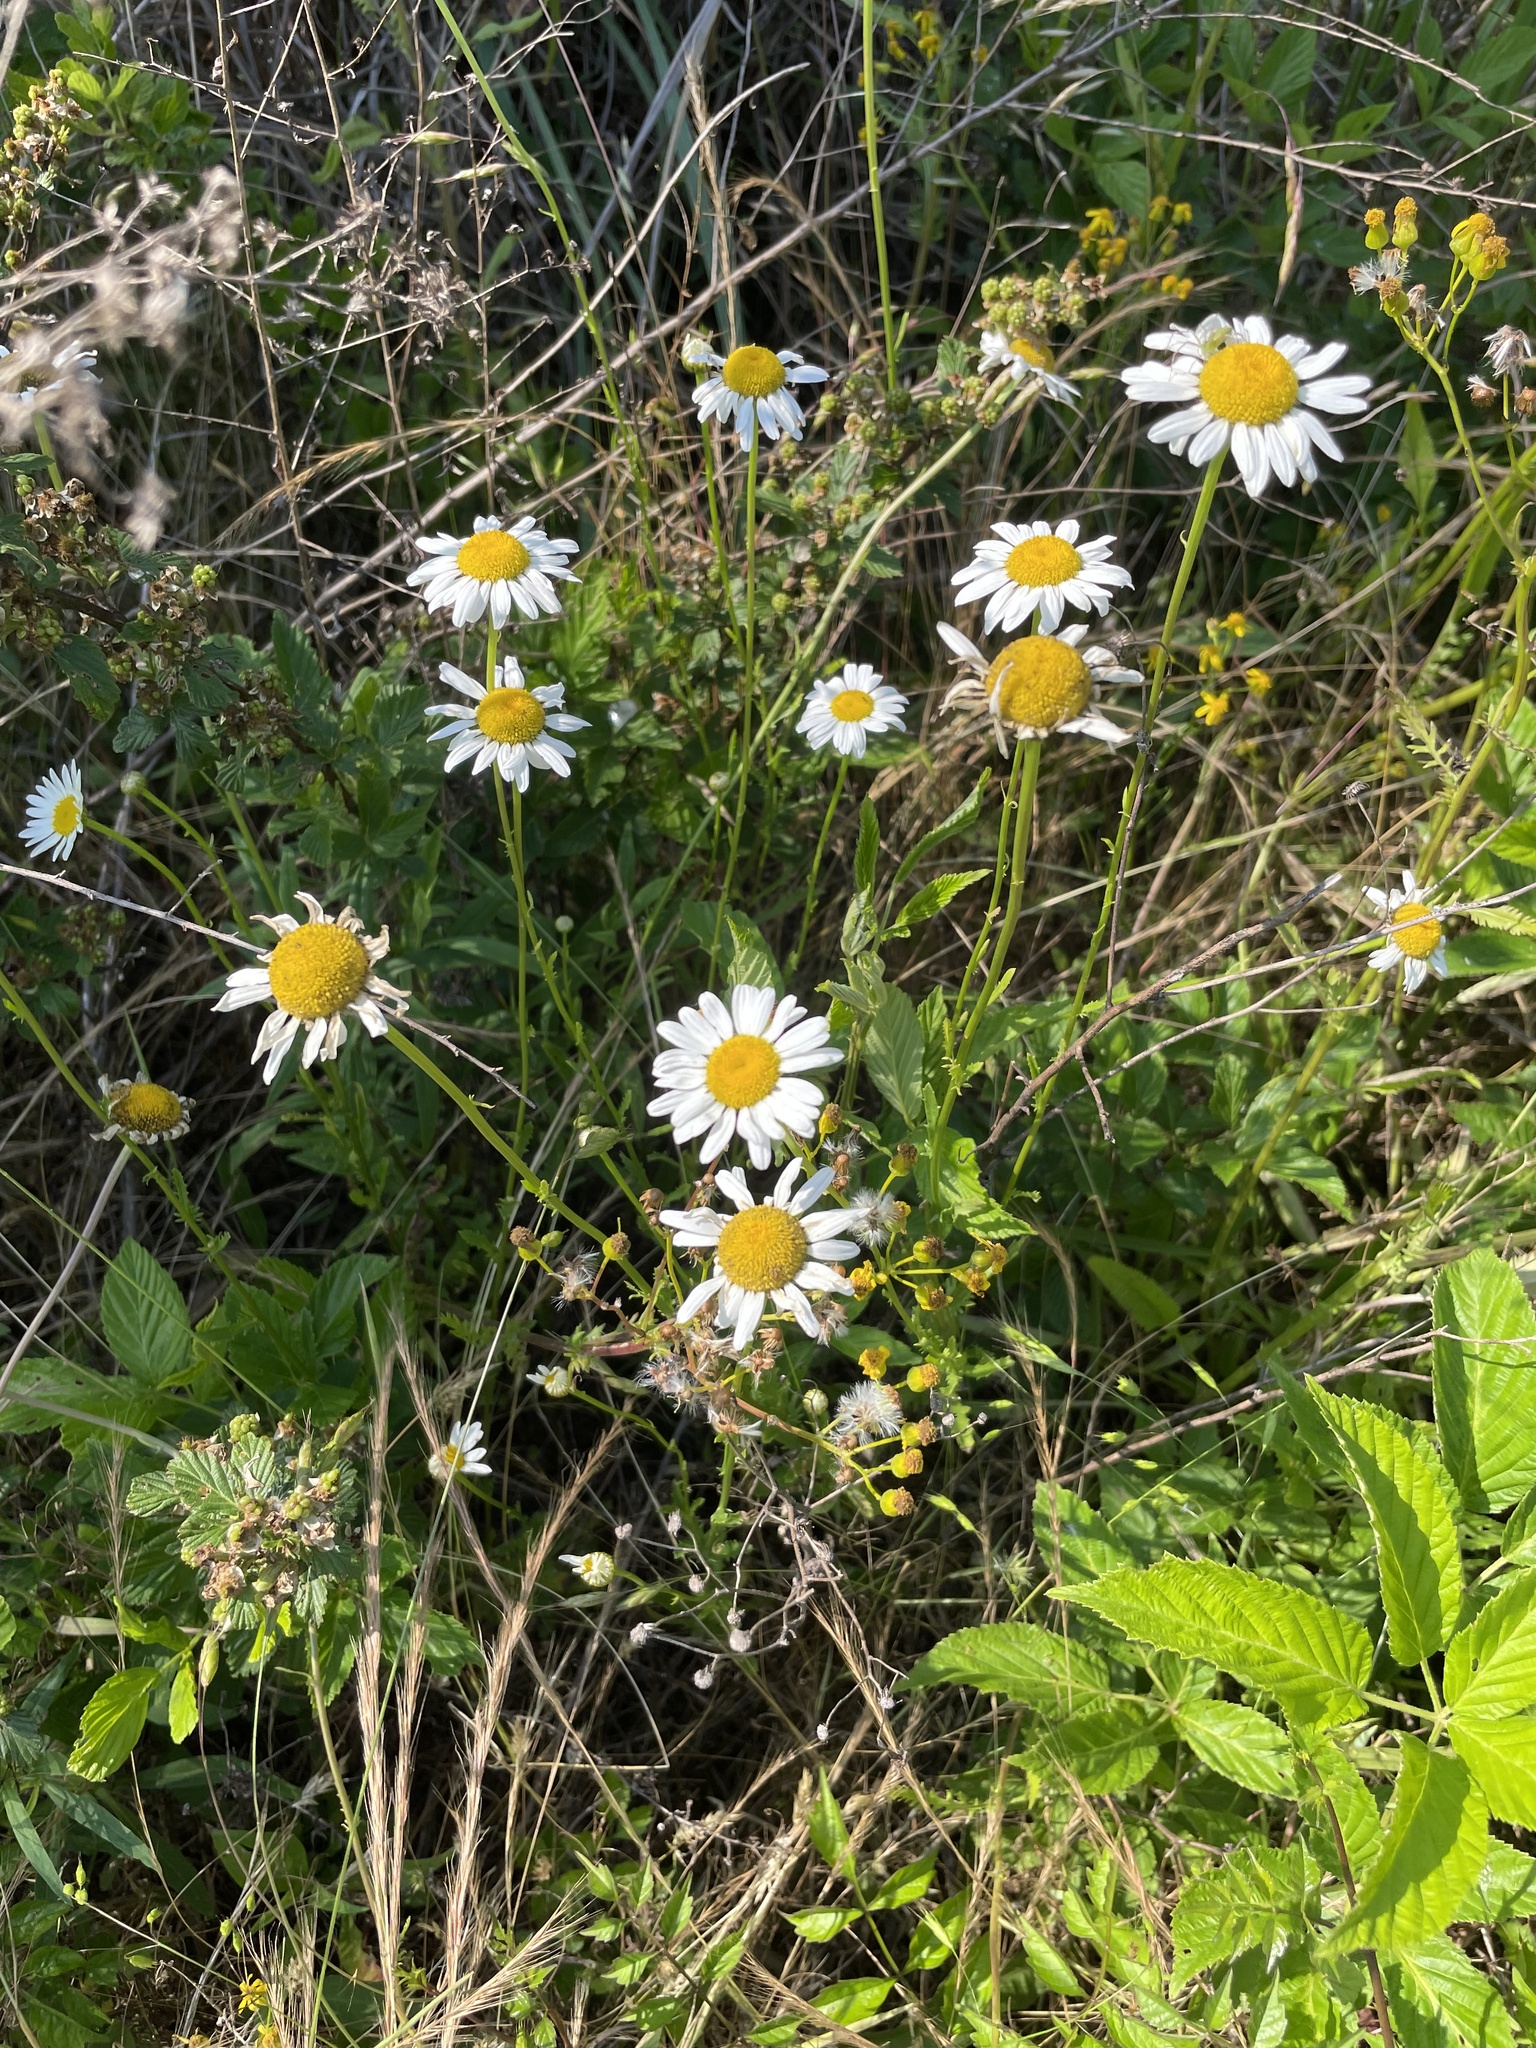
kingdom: Plantae
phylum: Tracheophyta
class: Magnoliopsida
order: Asterales
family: Asteraceae
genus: Leucanthemum
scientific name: Leucanthemum vulgare
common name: Oxeye daisy
